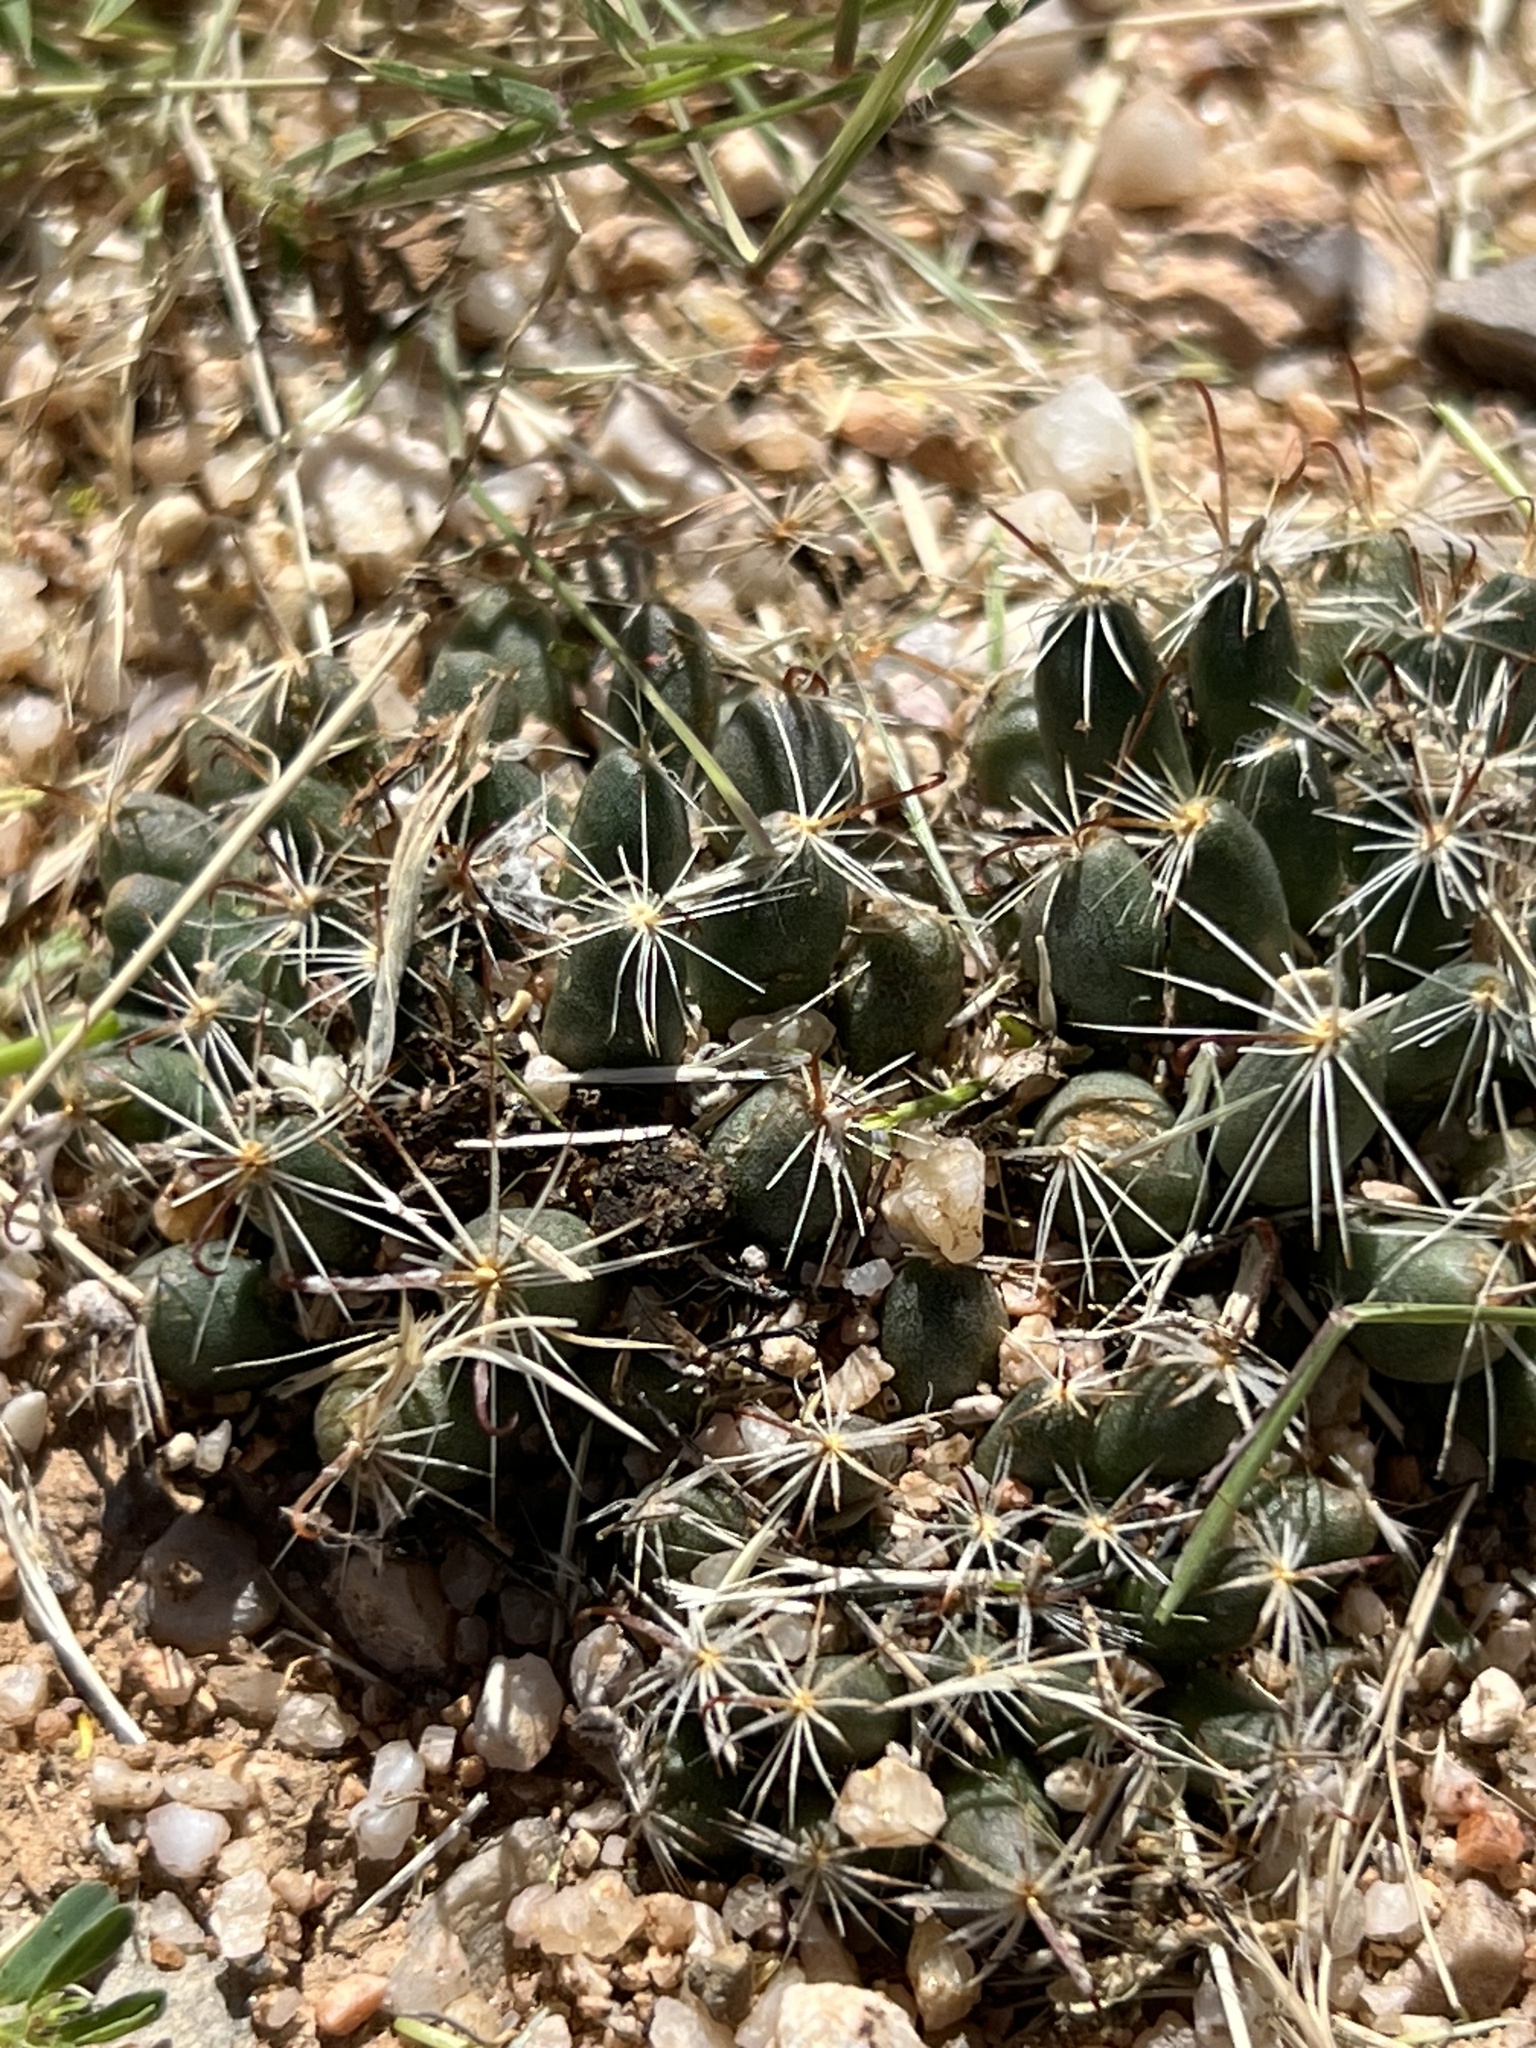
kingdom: Plantae
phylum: Tracheophyta
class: Magnoliopsida
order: Caryophyllales
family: Cactaceae
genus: Cochemiea
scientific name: Cochemiea wrightii
